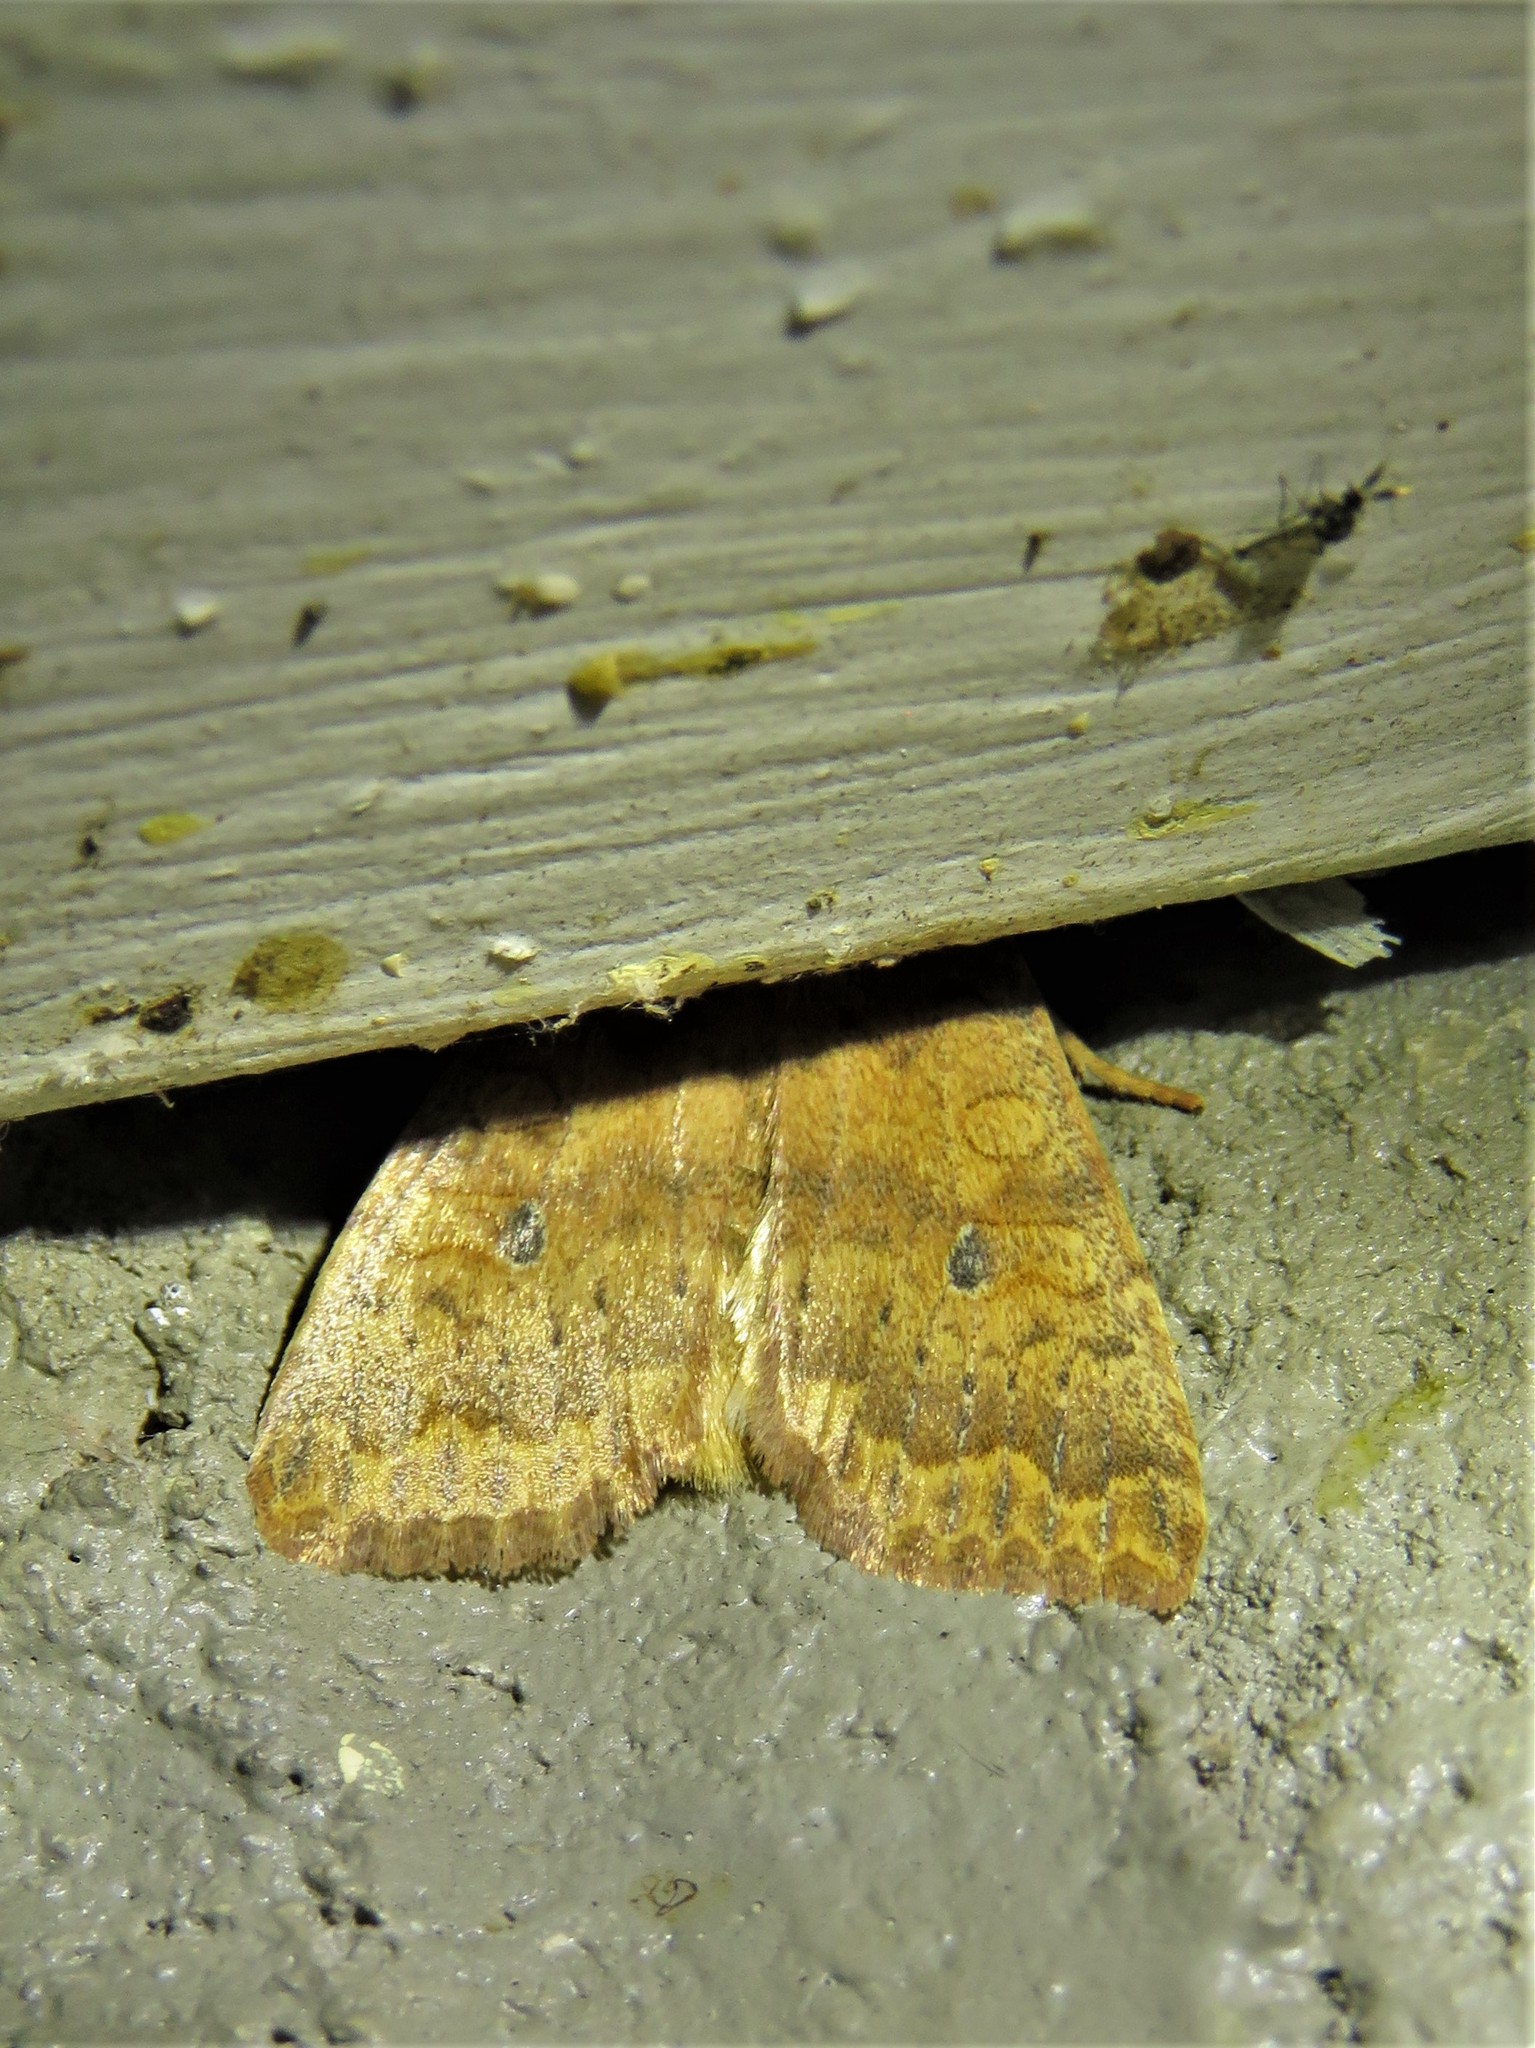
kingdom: Animalia
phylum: Arthropoda
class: Insecta
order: Lepidoptera
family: Noctuidae
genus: Agrochola
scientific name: Agrochola bicolorago
